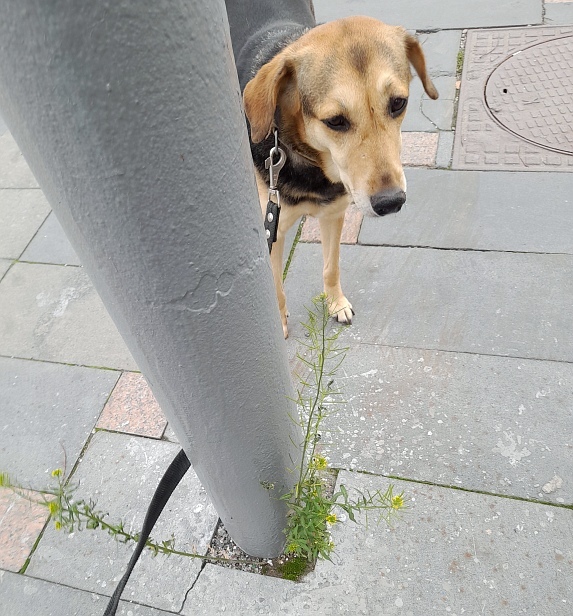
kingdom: Plantae
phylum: Tracheophyta
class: Magnoliopsida
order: Brassicales
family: Brassicaceae
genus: Erysimum
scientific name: Erysimum cheiranthoides
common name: Treacle mustard
